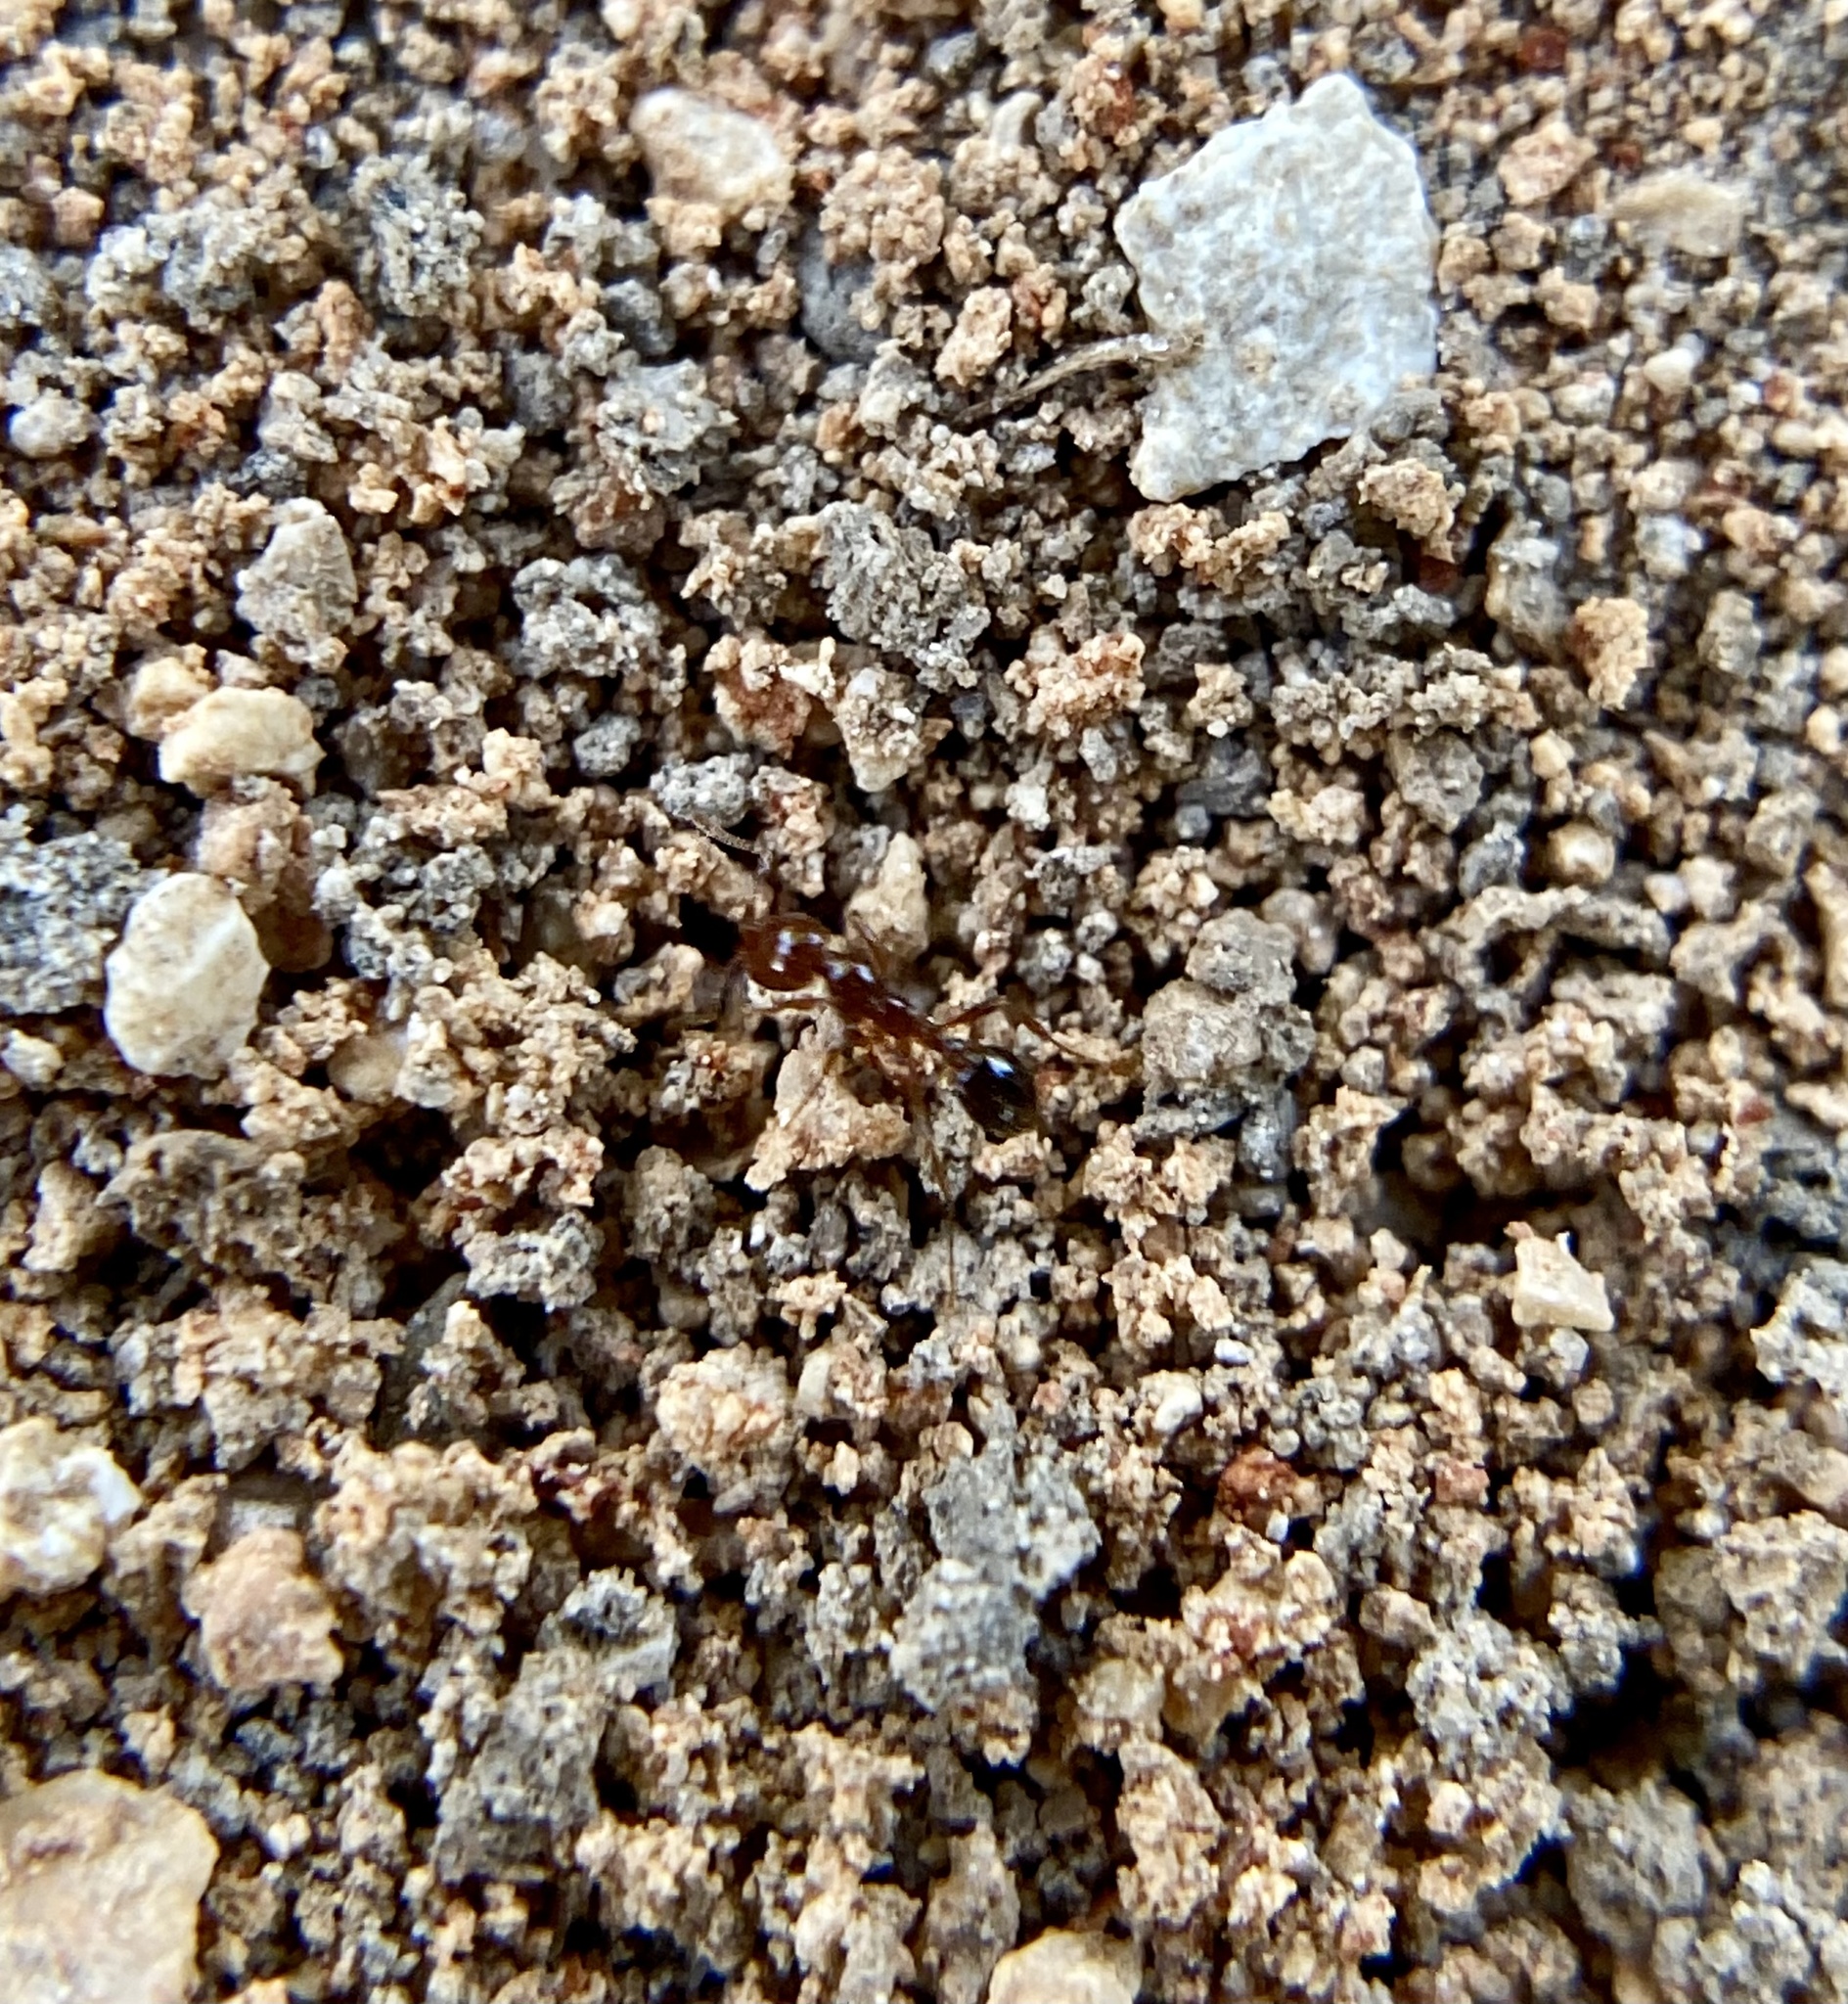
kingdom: Animalia
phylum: Arthropoda
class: Insecta
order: Hymenoptera
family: Formicidae
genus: Solenopsis
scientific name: Solenopsis invicta
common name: Red imported fire ant
